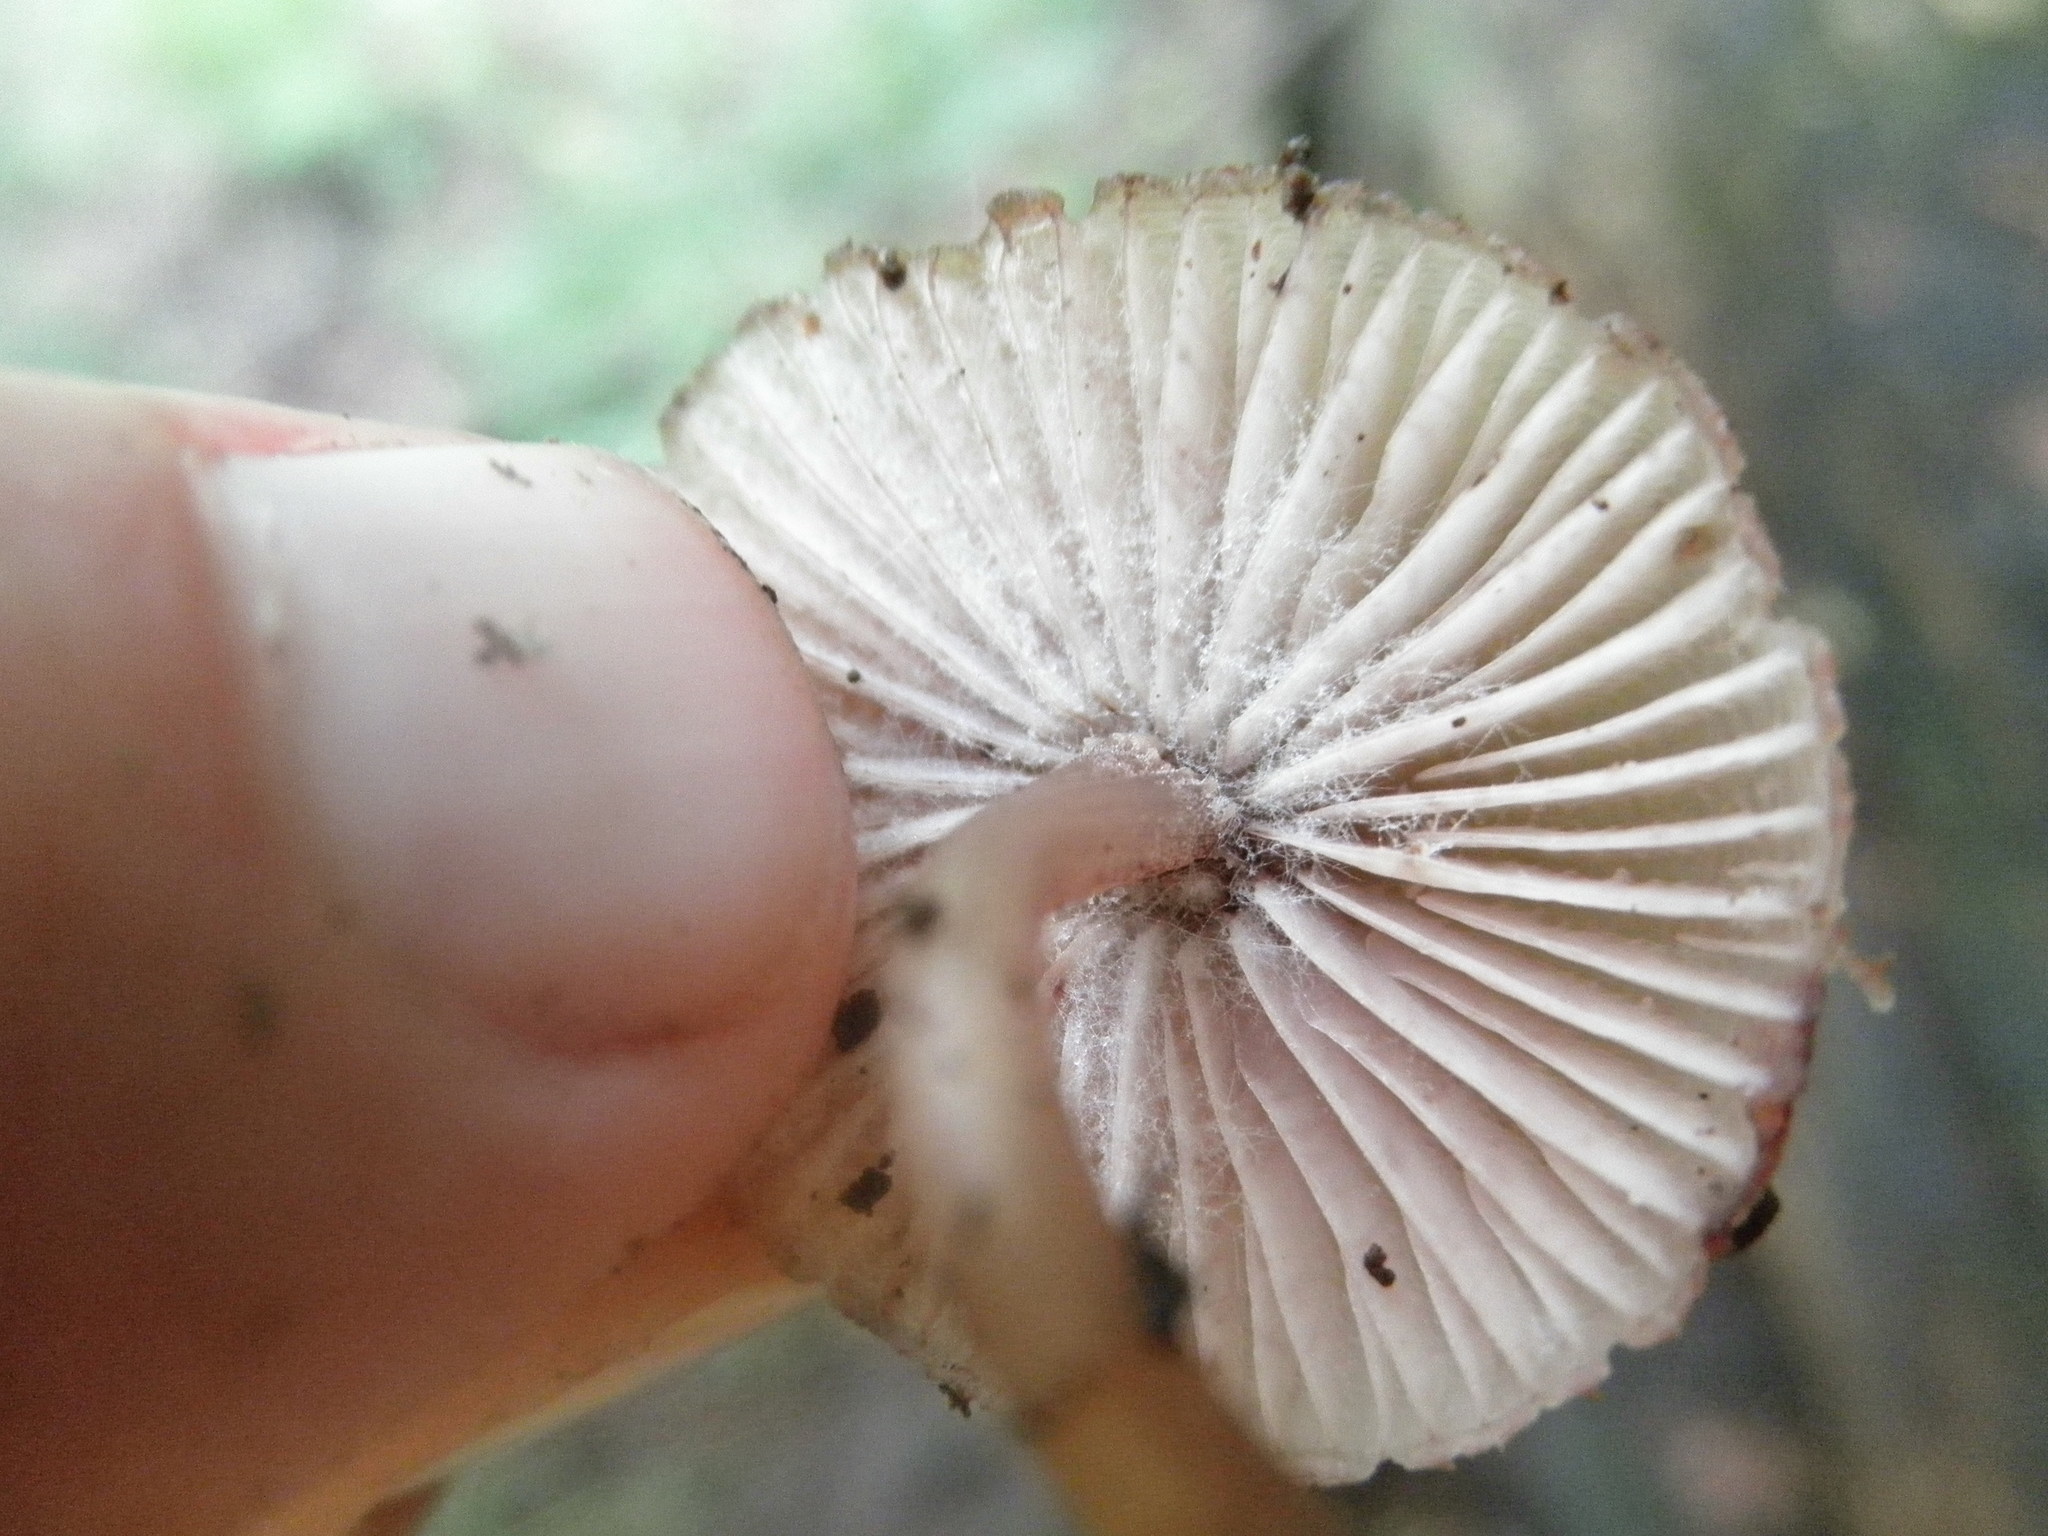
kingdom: Fungi
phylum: Mucoromycota
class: Mucoromycetes
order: Mucorales
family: Phycomycetaceae
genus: Spinellus
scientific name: Spinellus fusiger
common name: Bonnet mould
